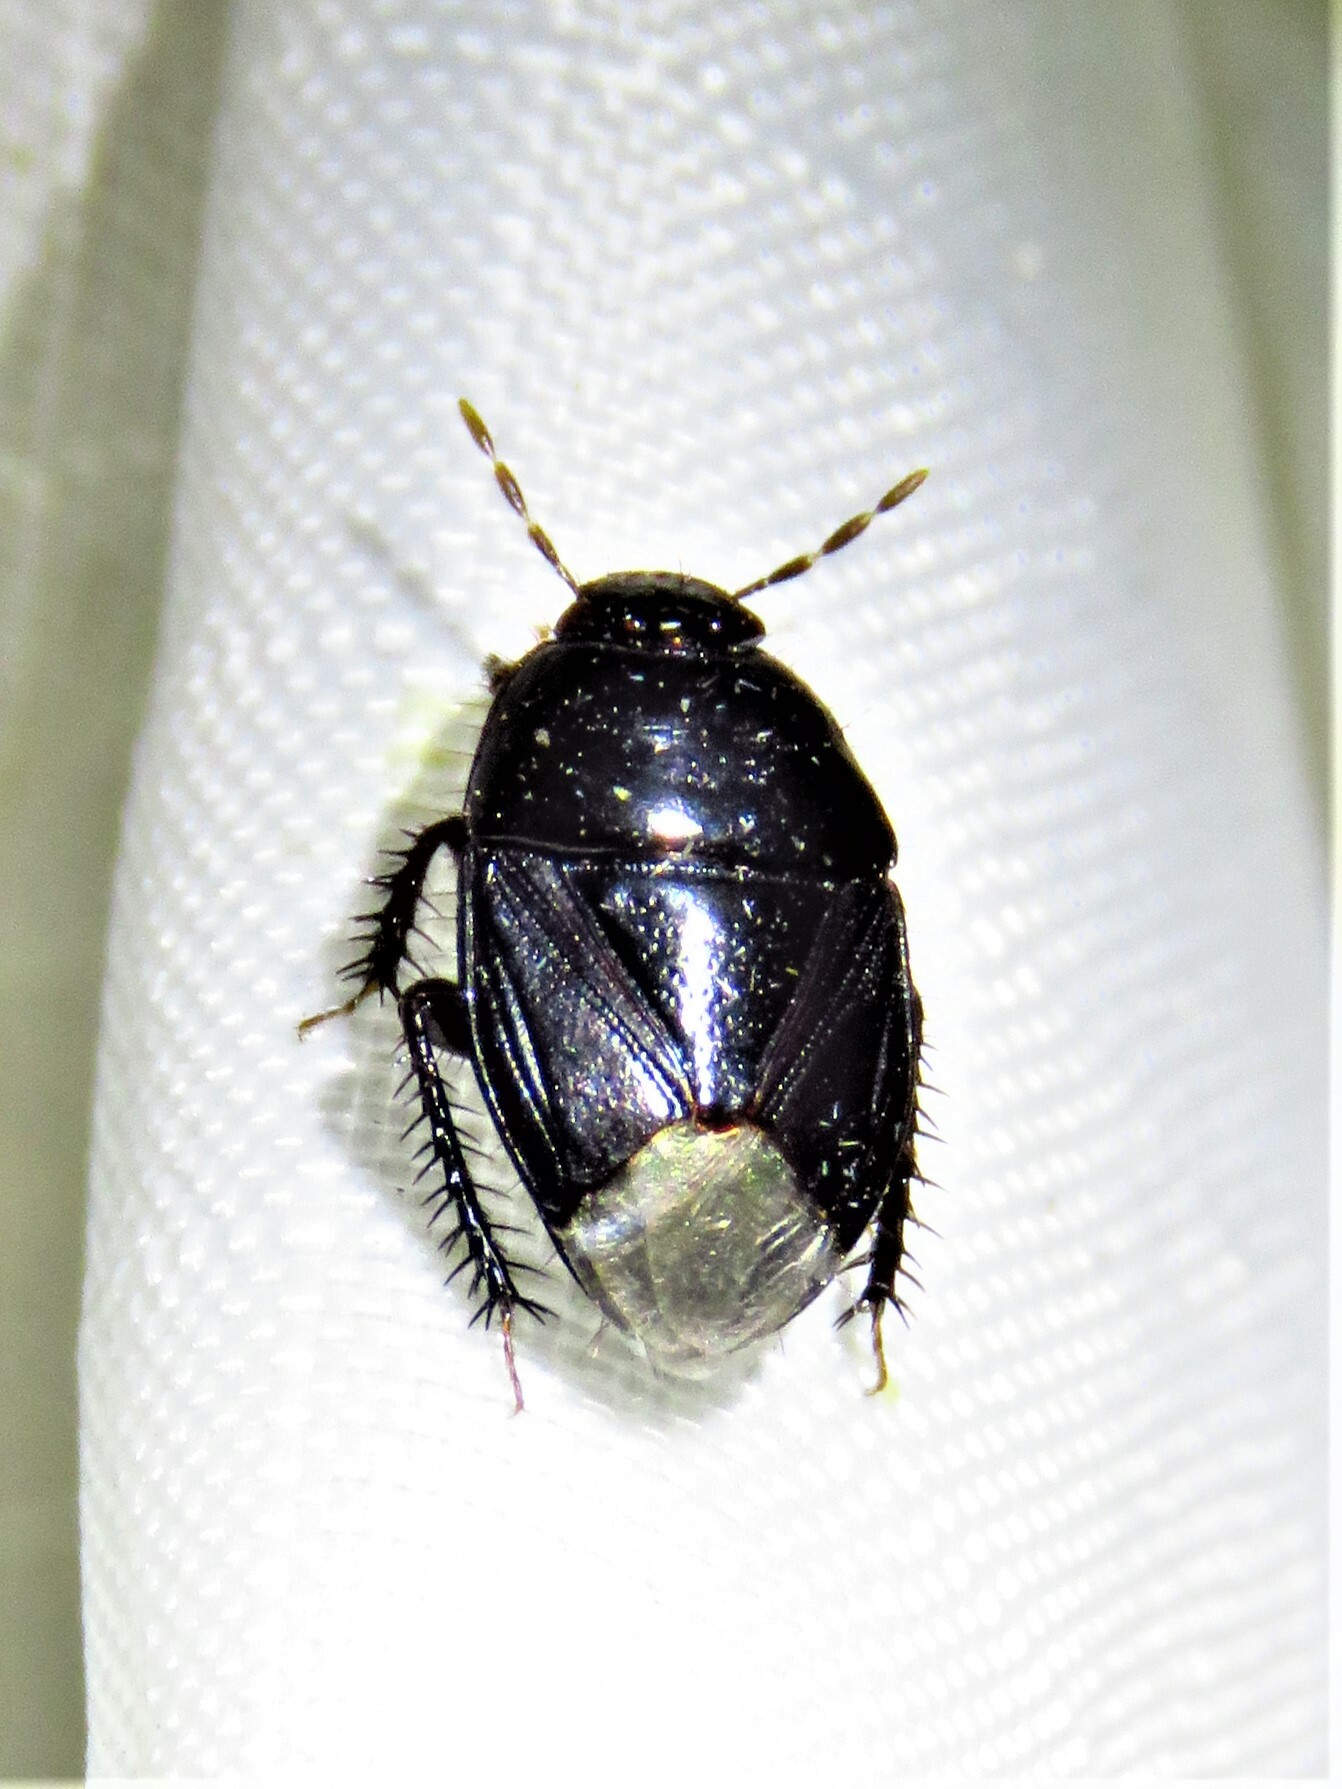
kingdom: Animalia
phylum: Arthropoda
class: Insecta
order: Hemiptera
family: Cydnidae
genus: Pangaeus
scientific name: Pangaeus bilineatus
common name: Burrower bug
